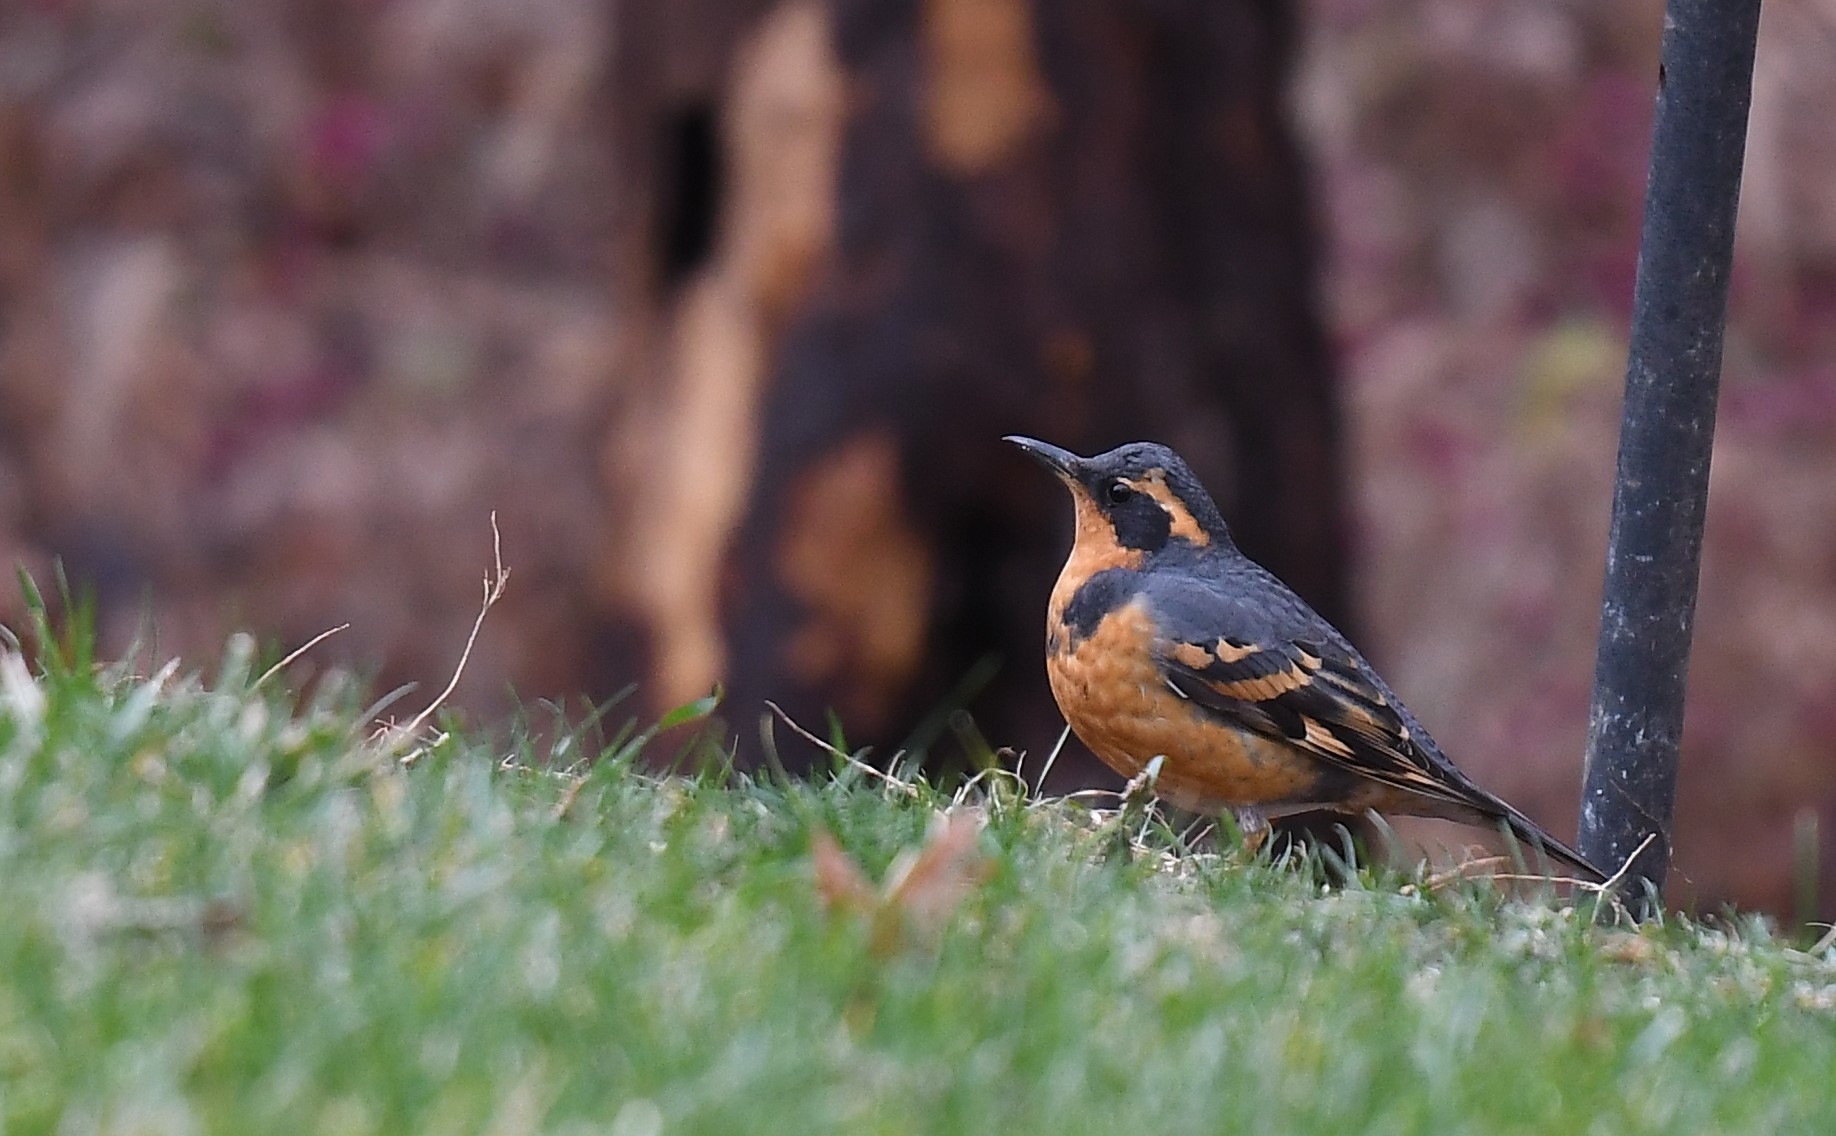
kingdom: Animalia
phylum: Chordata
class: Aves
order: Passeriformes
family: Turdidae
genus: Ixoreus
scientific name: Ixoreus naevius
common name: Varied thrush
